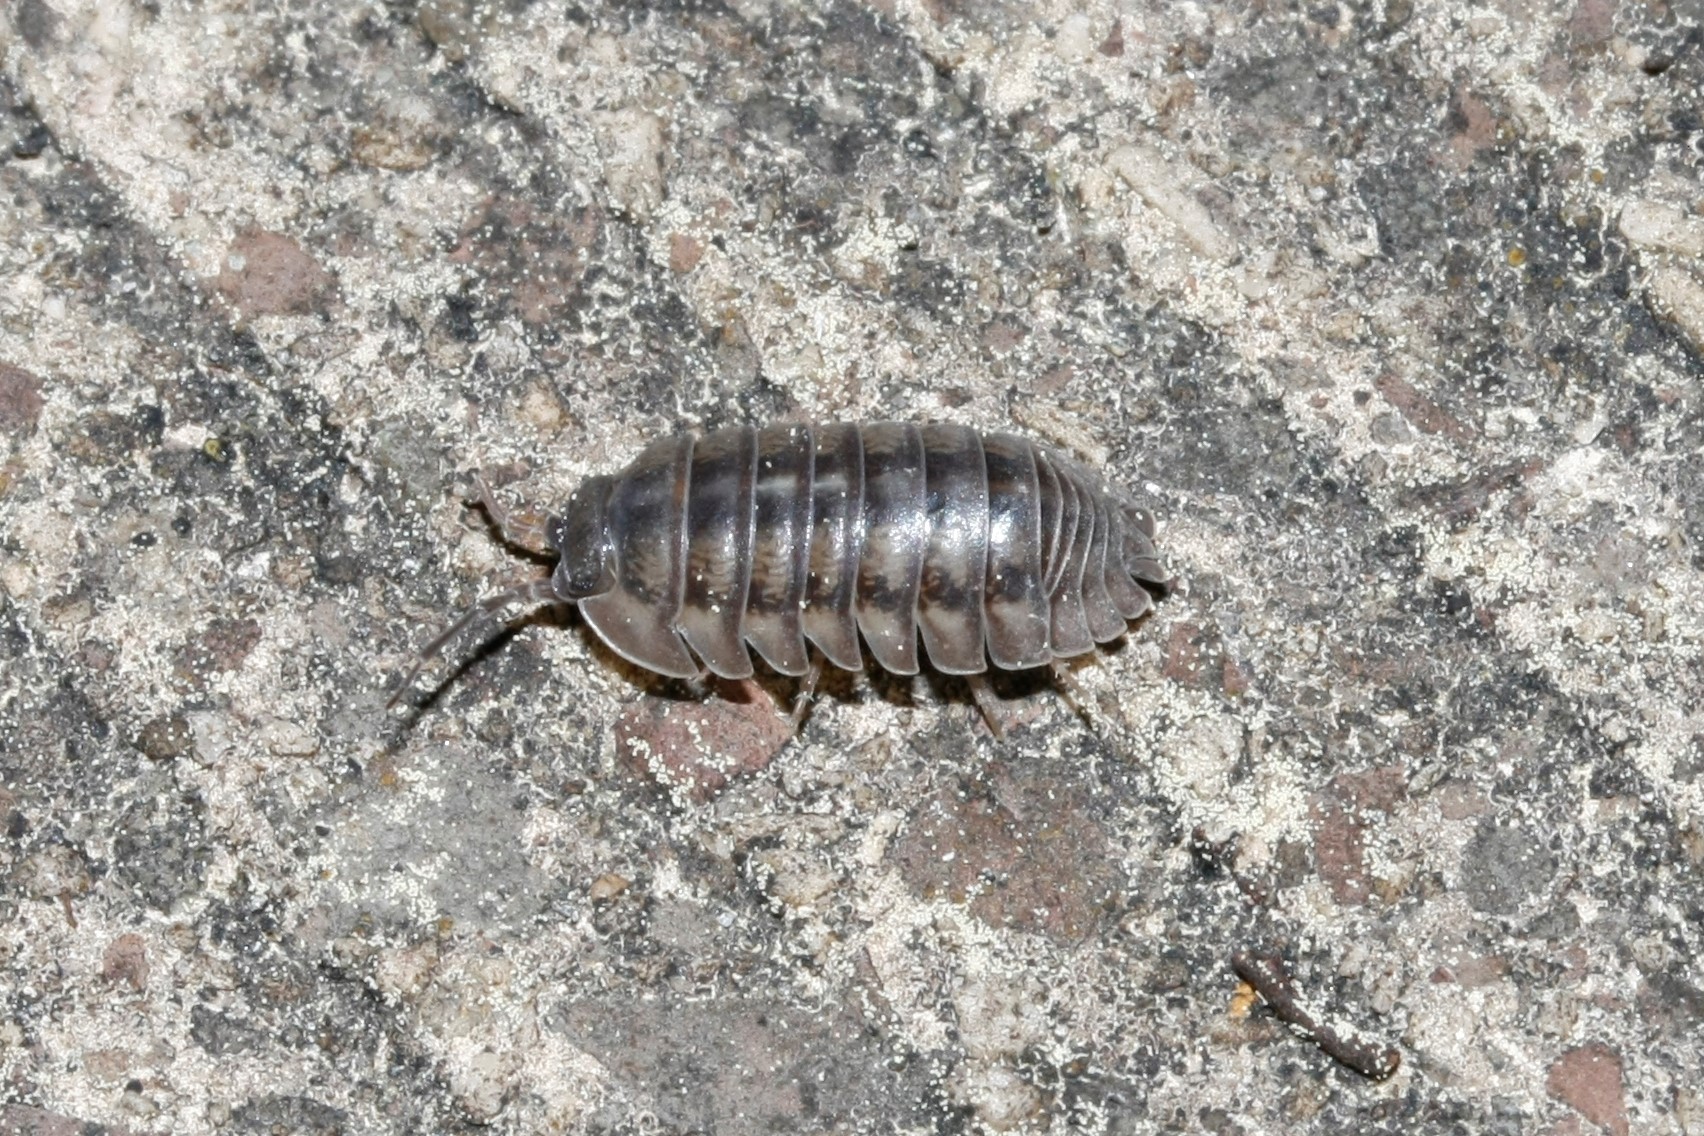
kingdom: Animalia
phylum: Arthropoda
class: Malacostraca
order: Isopoda
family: Armadillidiidae
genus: Armadillidium
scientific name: Armadillidium nasatum
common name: Isopod
